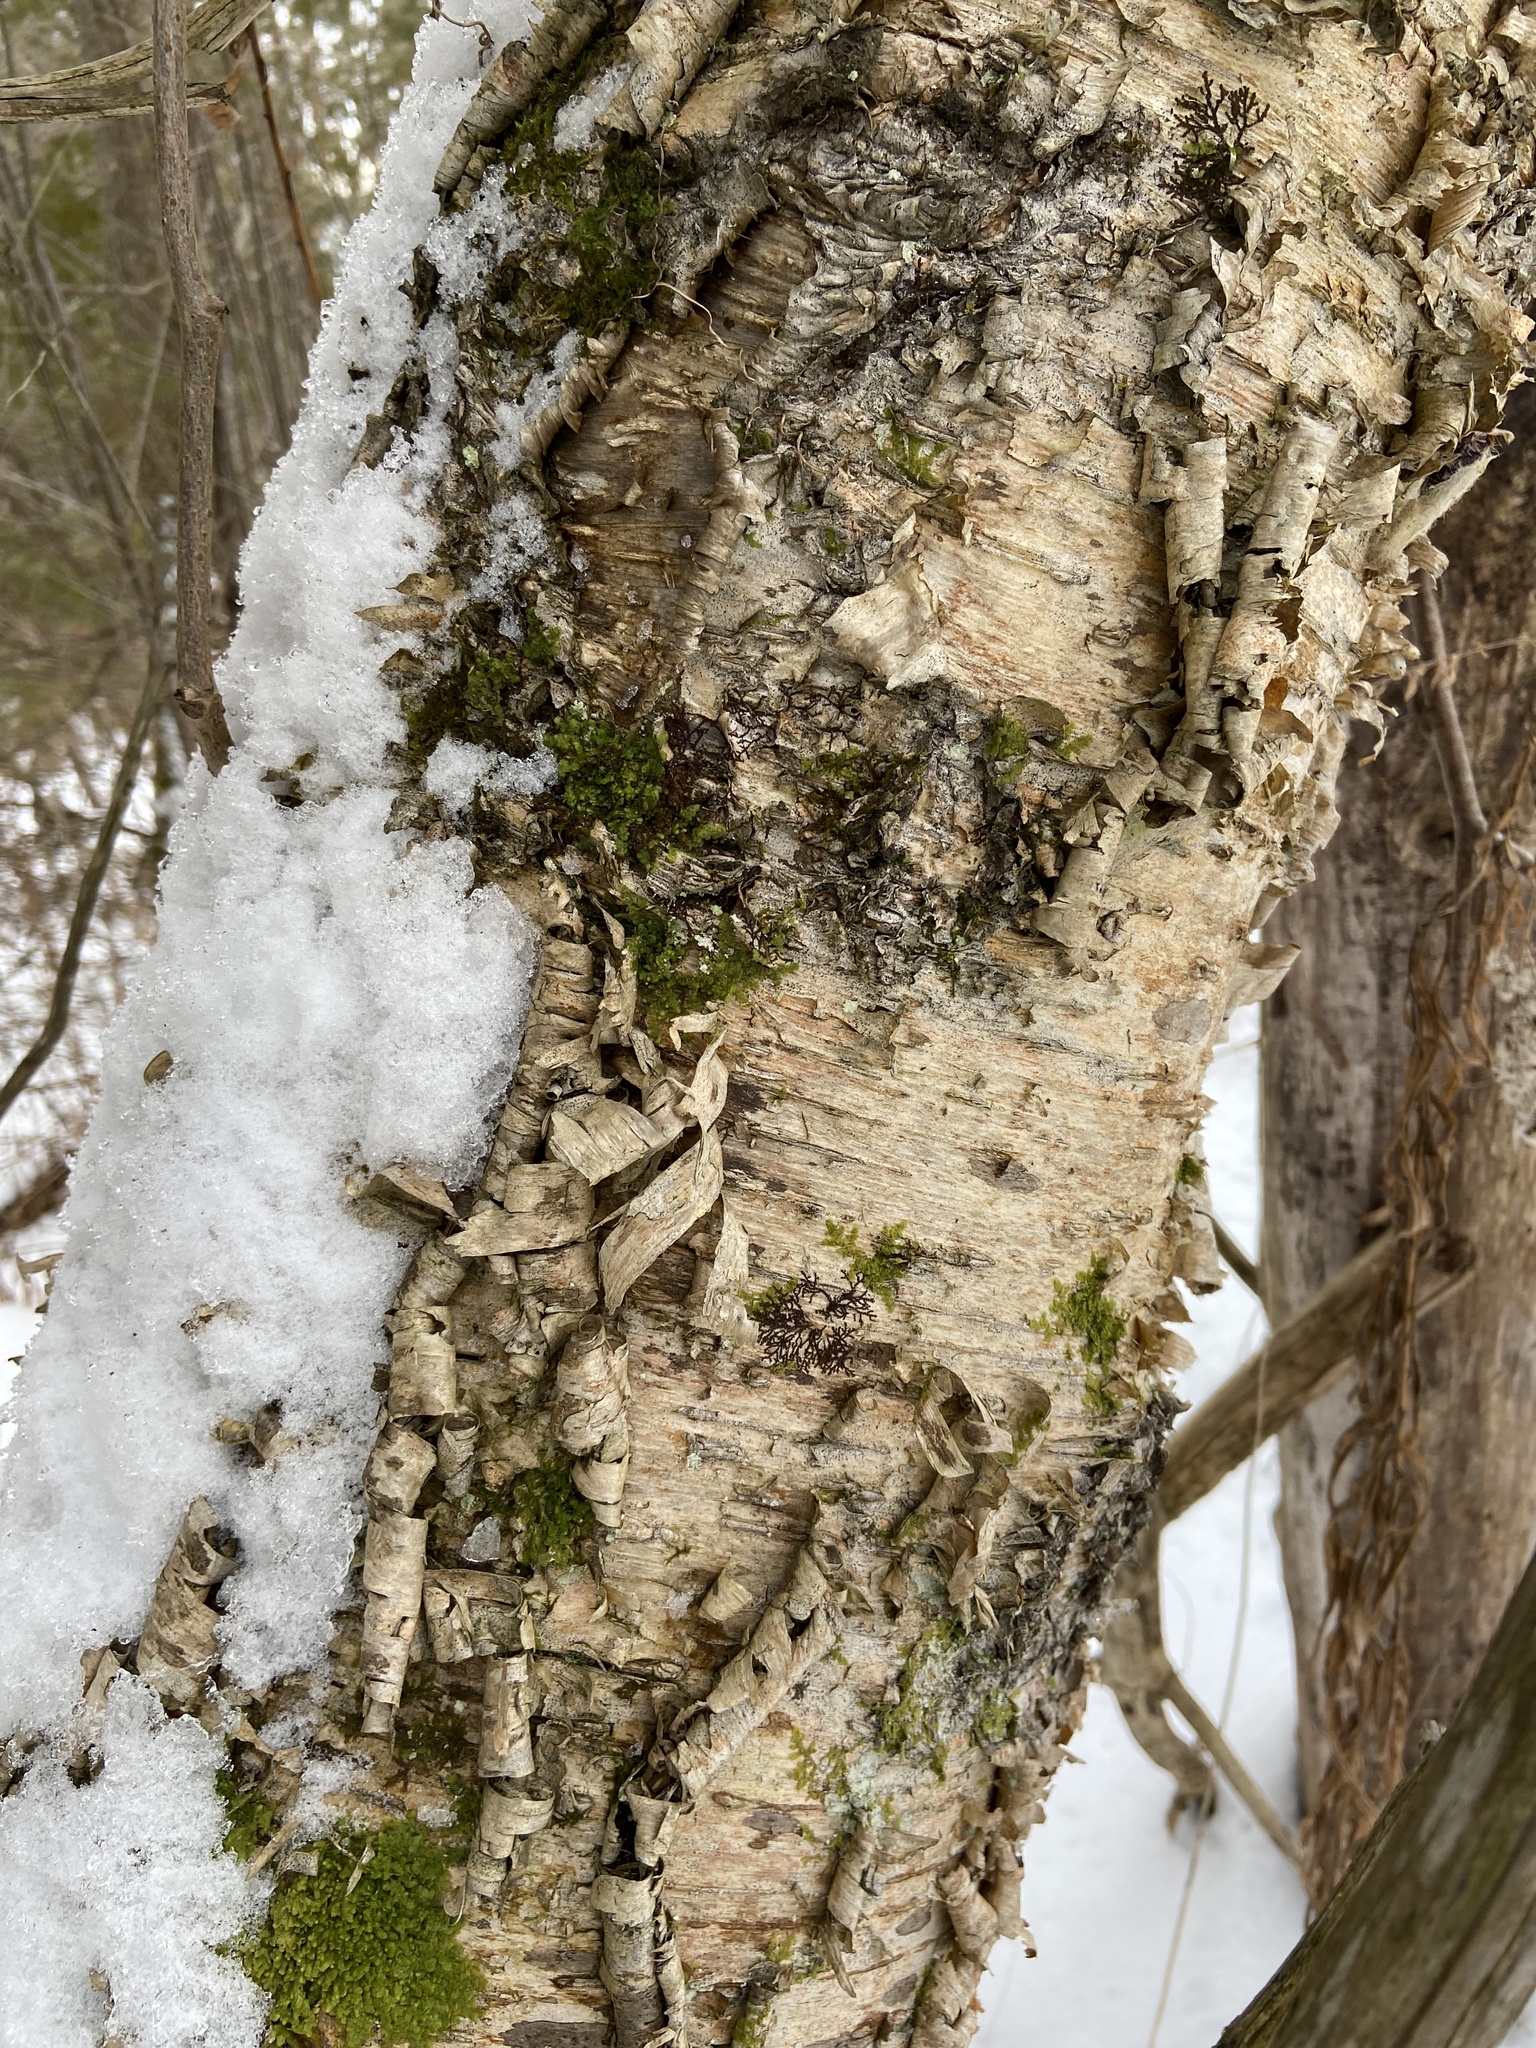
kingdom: Plantae
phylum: Tracheophyta
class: Magnoliopsida
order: Fagales
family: Betulaceae
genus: Betula
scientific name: Betula alleghaniensis
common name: Yellow birch
